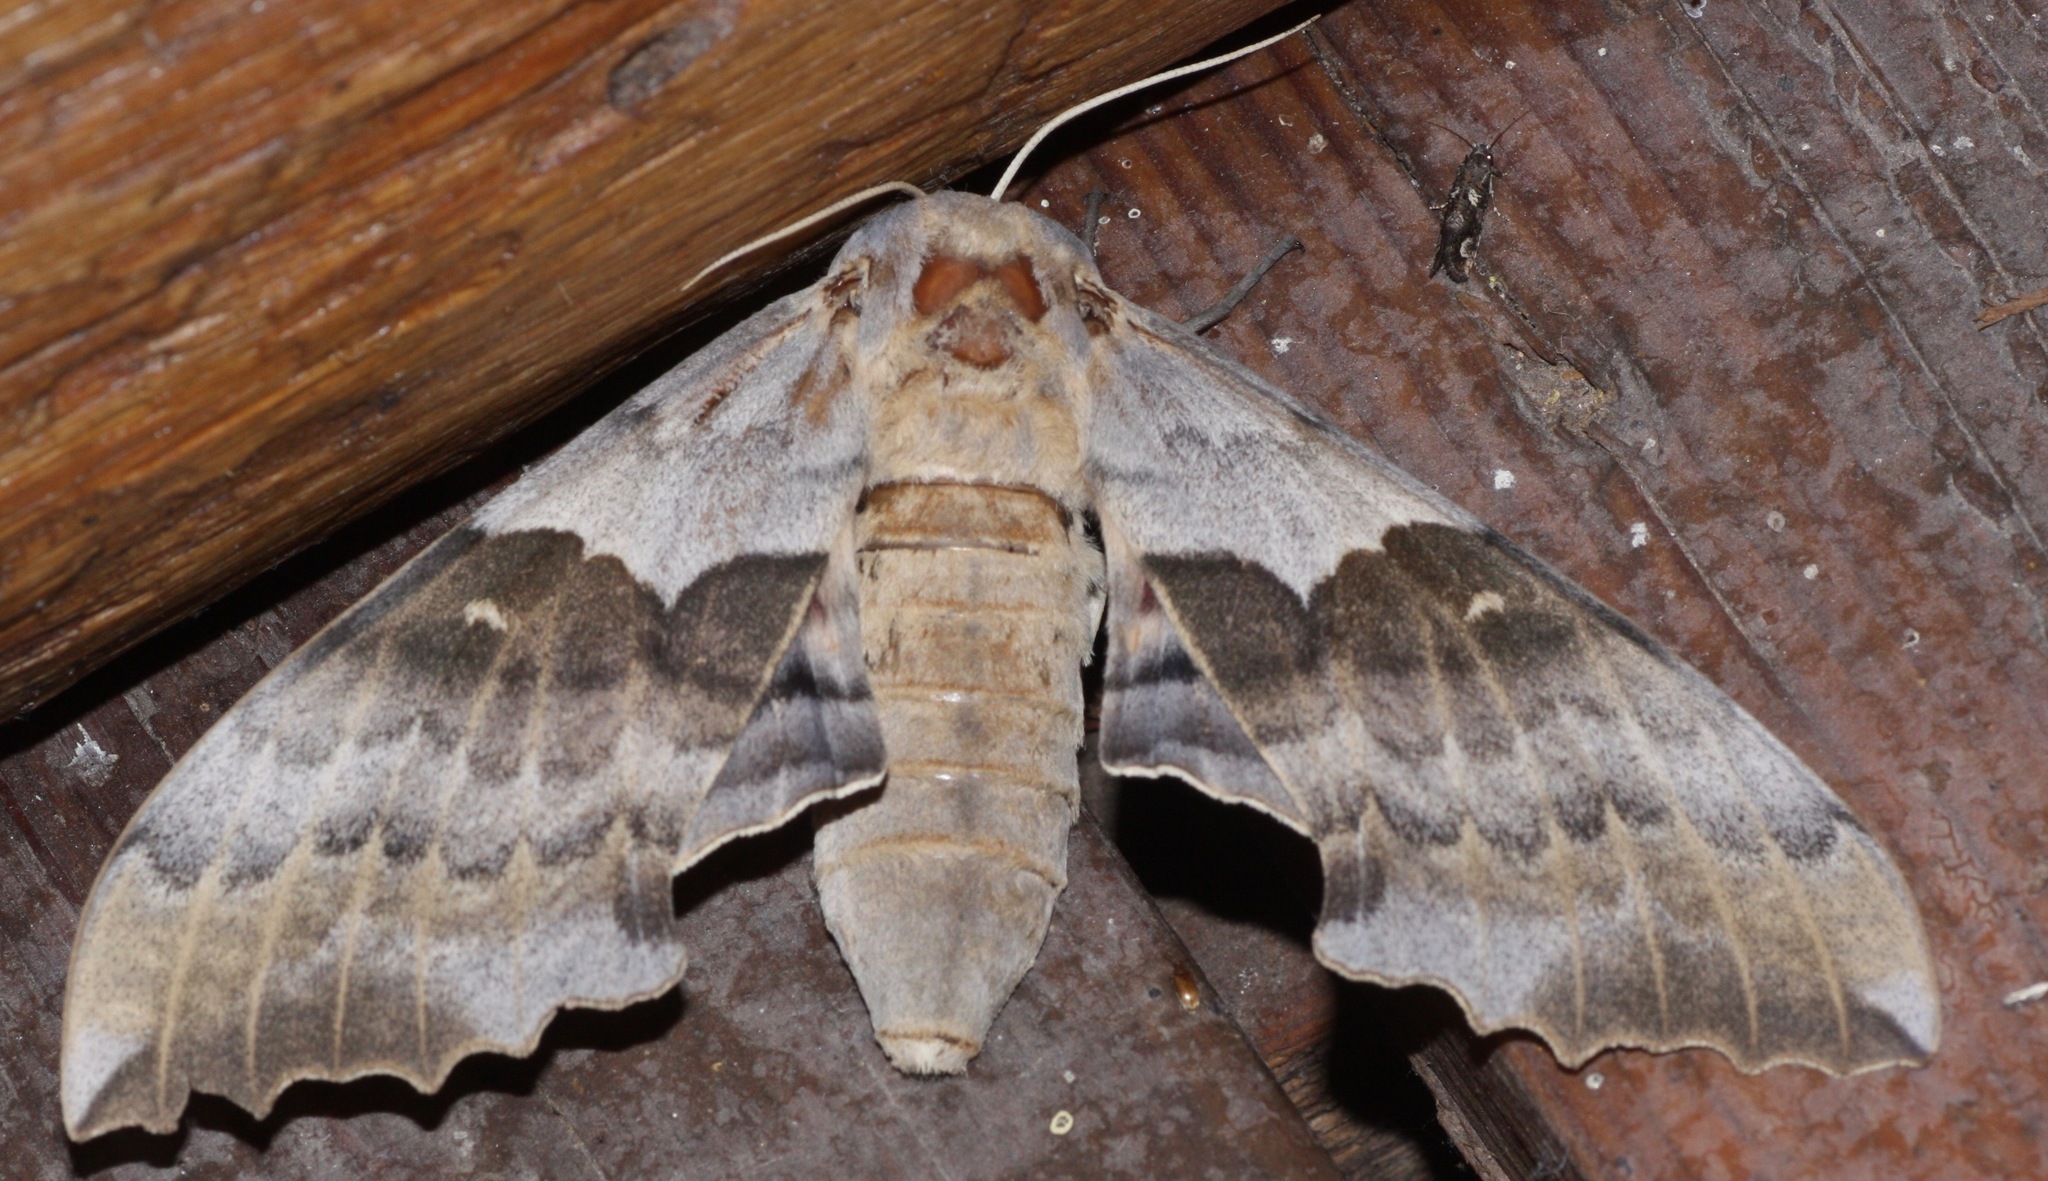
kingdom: Animalia
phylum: Arthropoda
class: Insecta
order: Lepidoptera
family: Sphingidae
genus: Pachysphinx
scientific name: Pachysphinx occidentalis
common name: Western poplar sphinx
